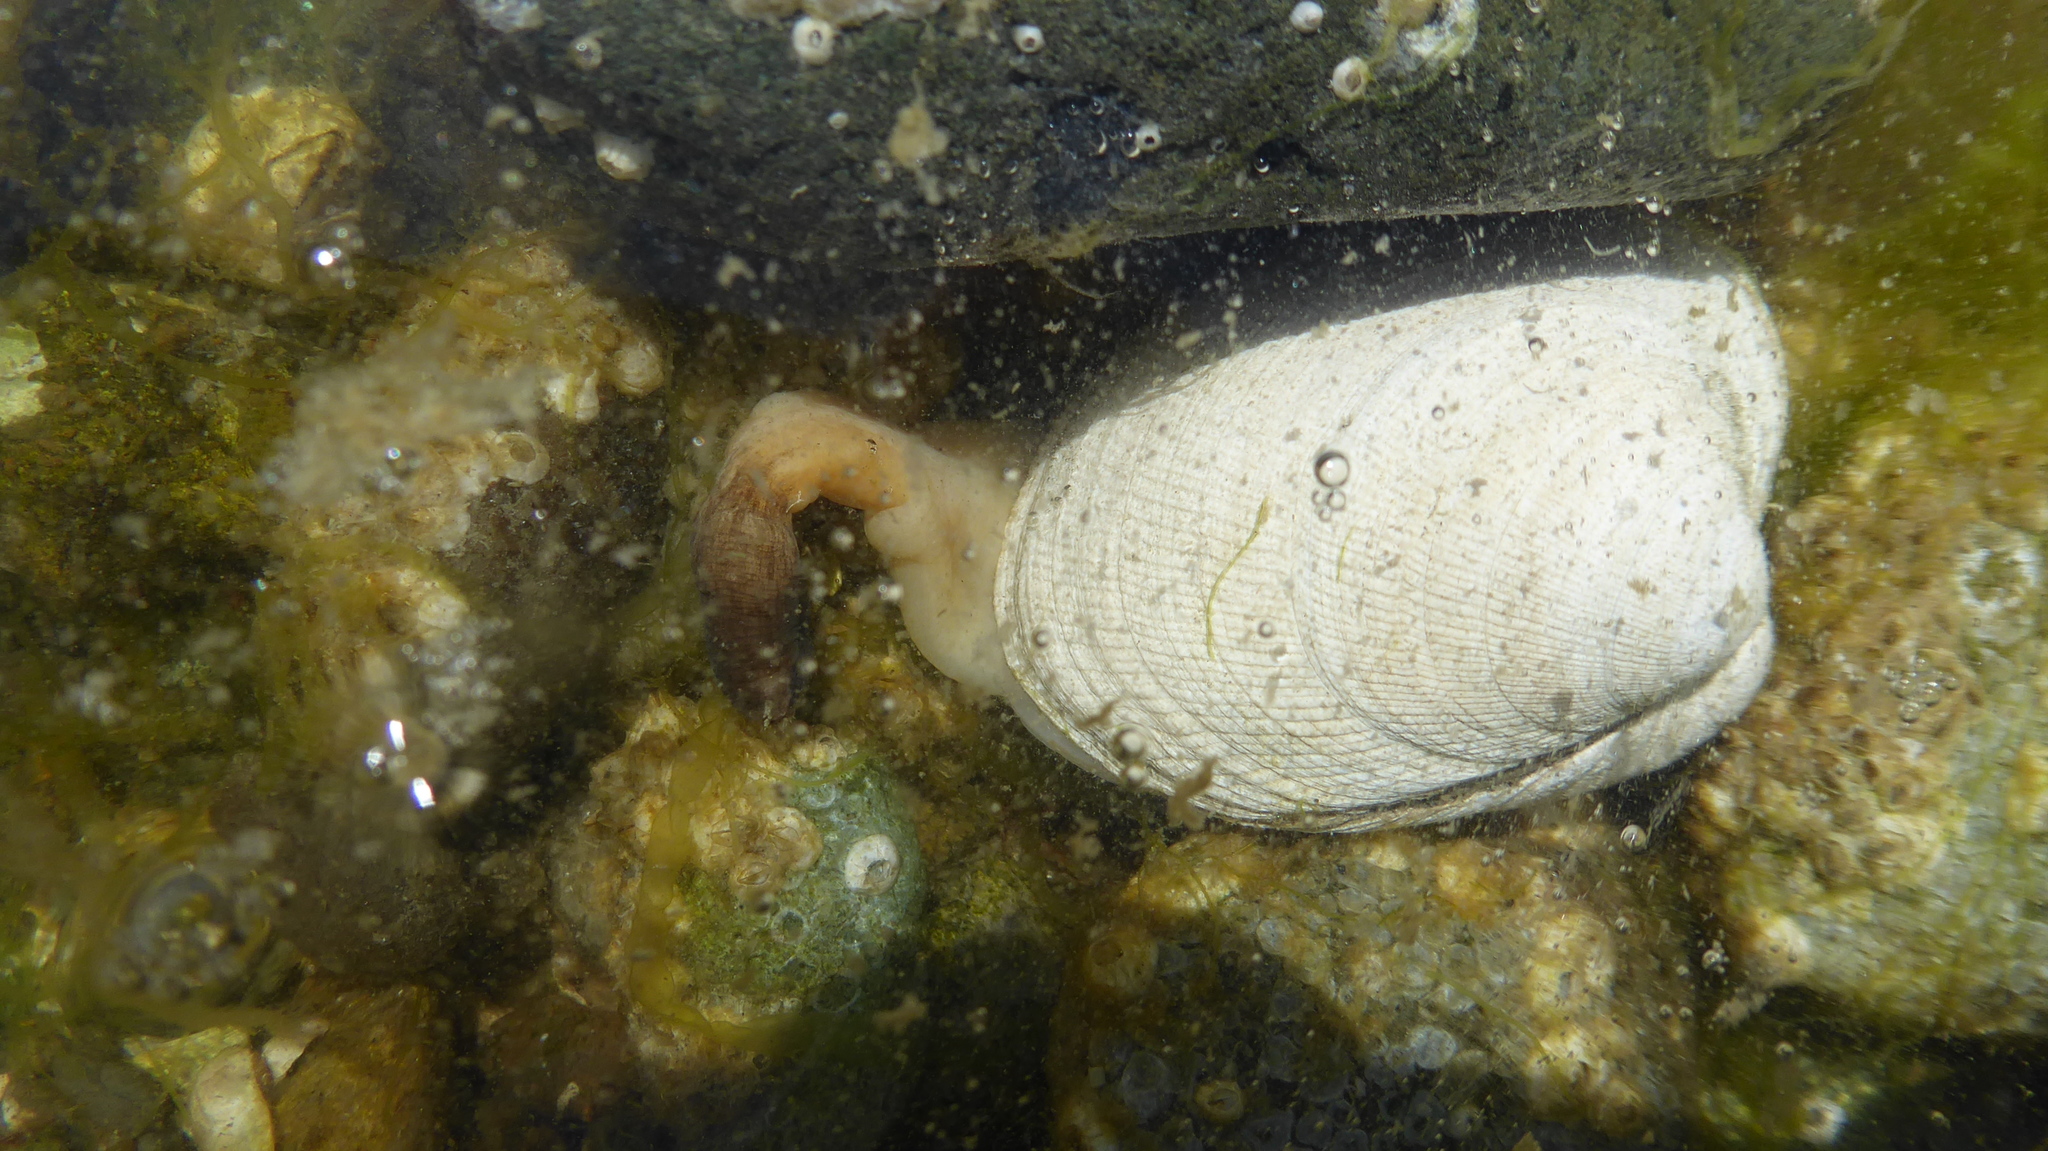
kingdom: Animalia
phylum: Mollusca
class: Bivalvia
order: Venerida
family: Veneridae
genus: Leukoma
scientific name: Leukoma staminea
